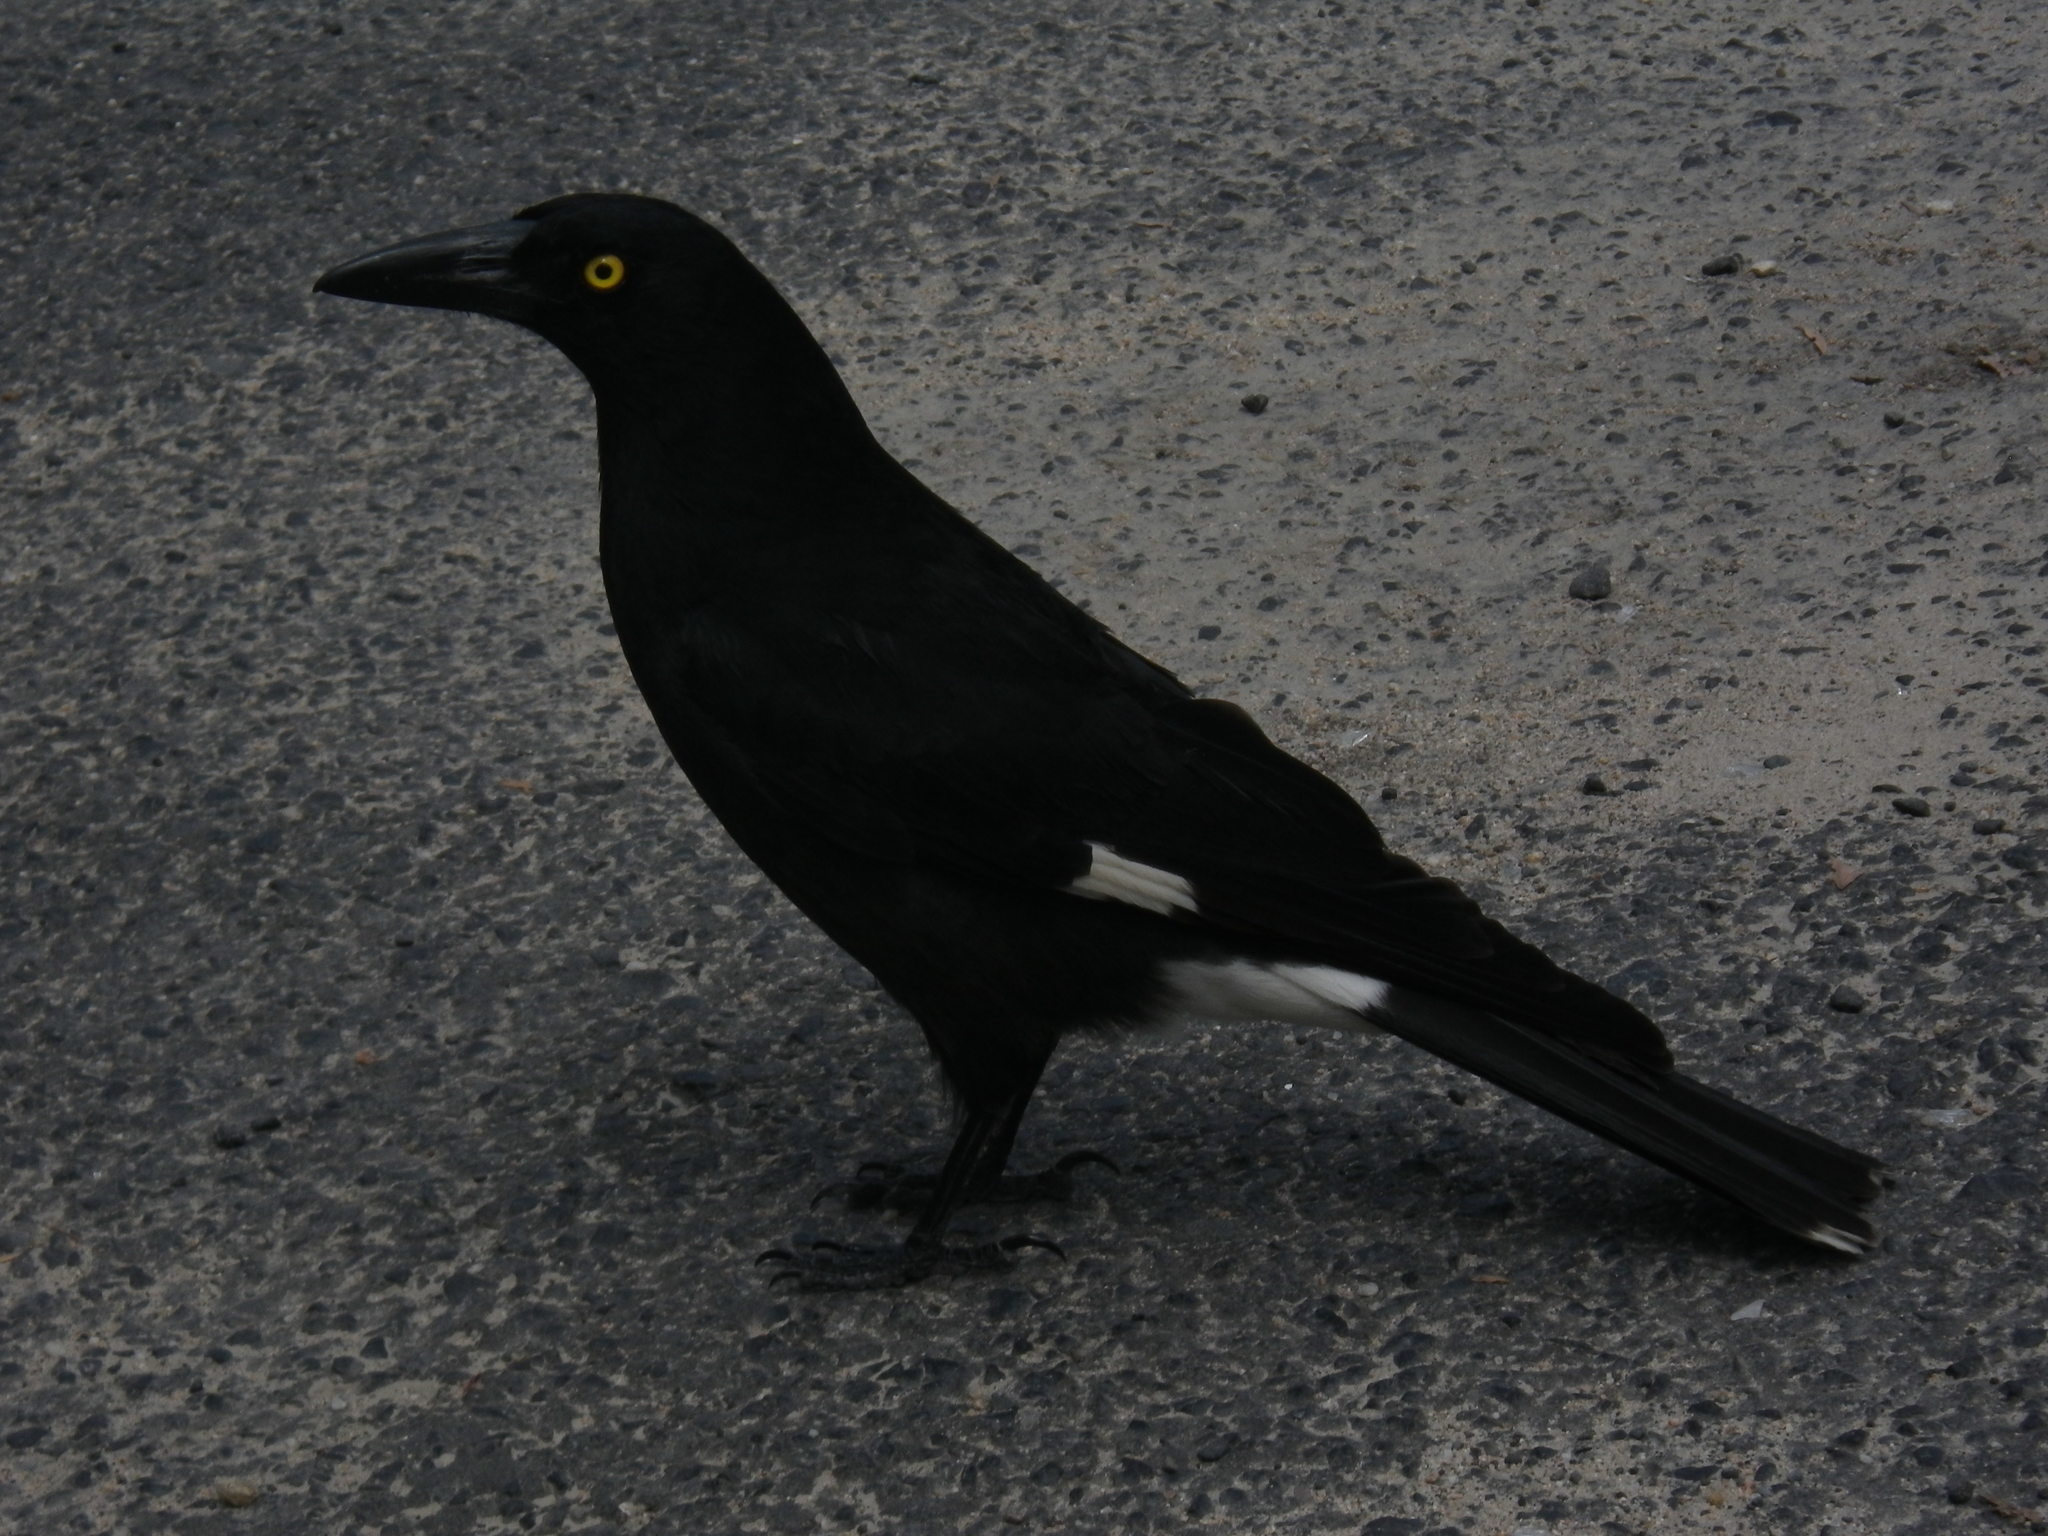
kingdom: Animalia
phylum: Chordata
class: Aves
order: Passeriformes
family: Cracticidae
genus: Strepera
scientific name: Strepera graculina
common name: Pied currawong
